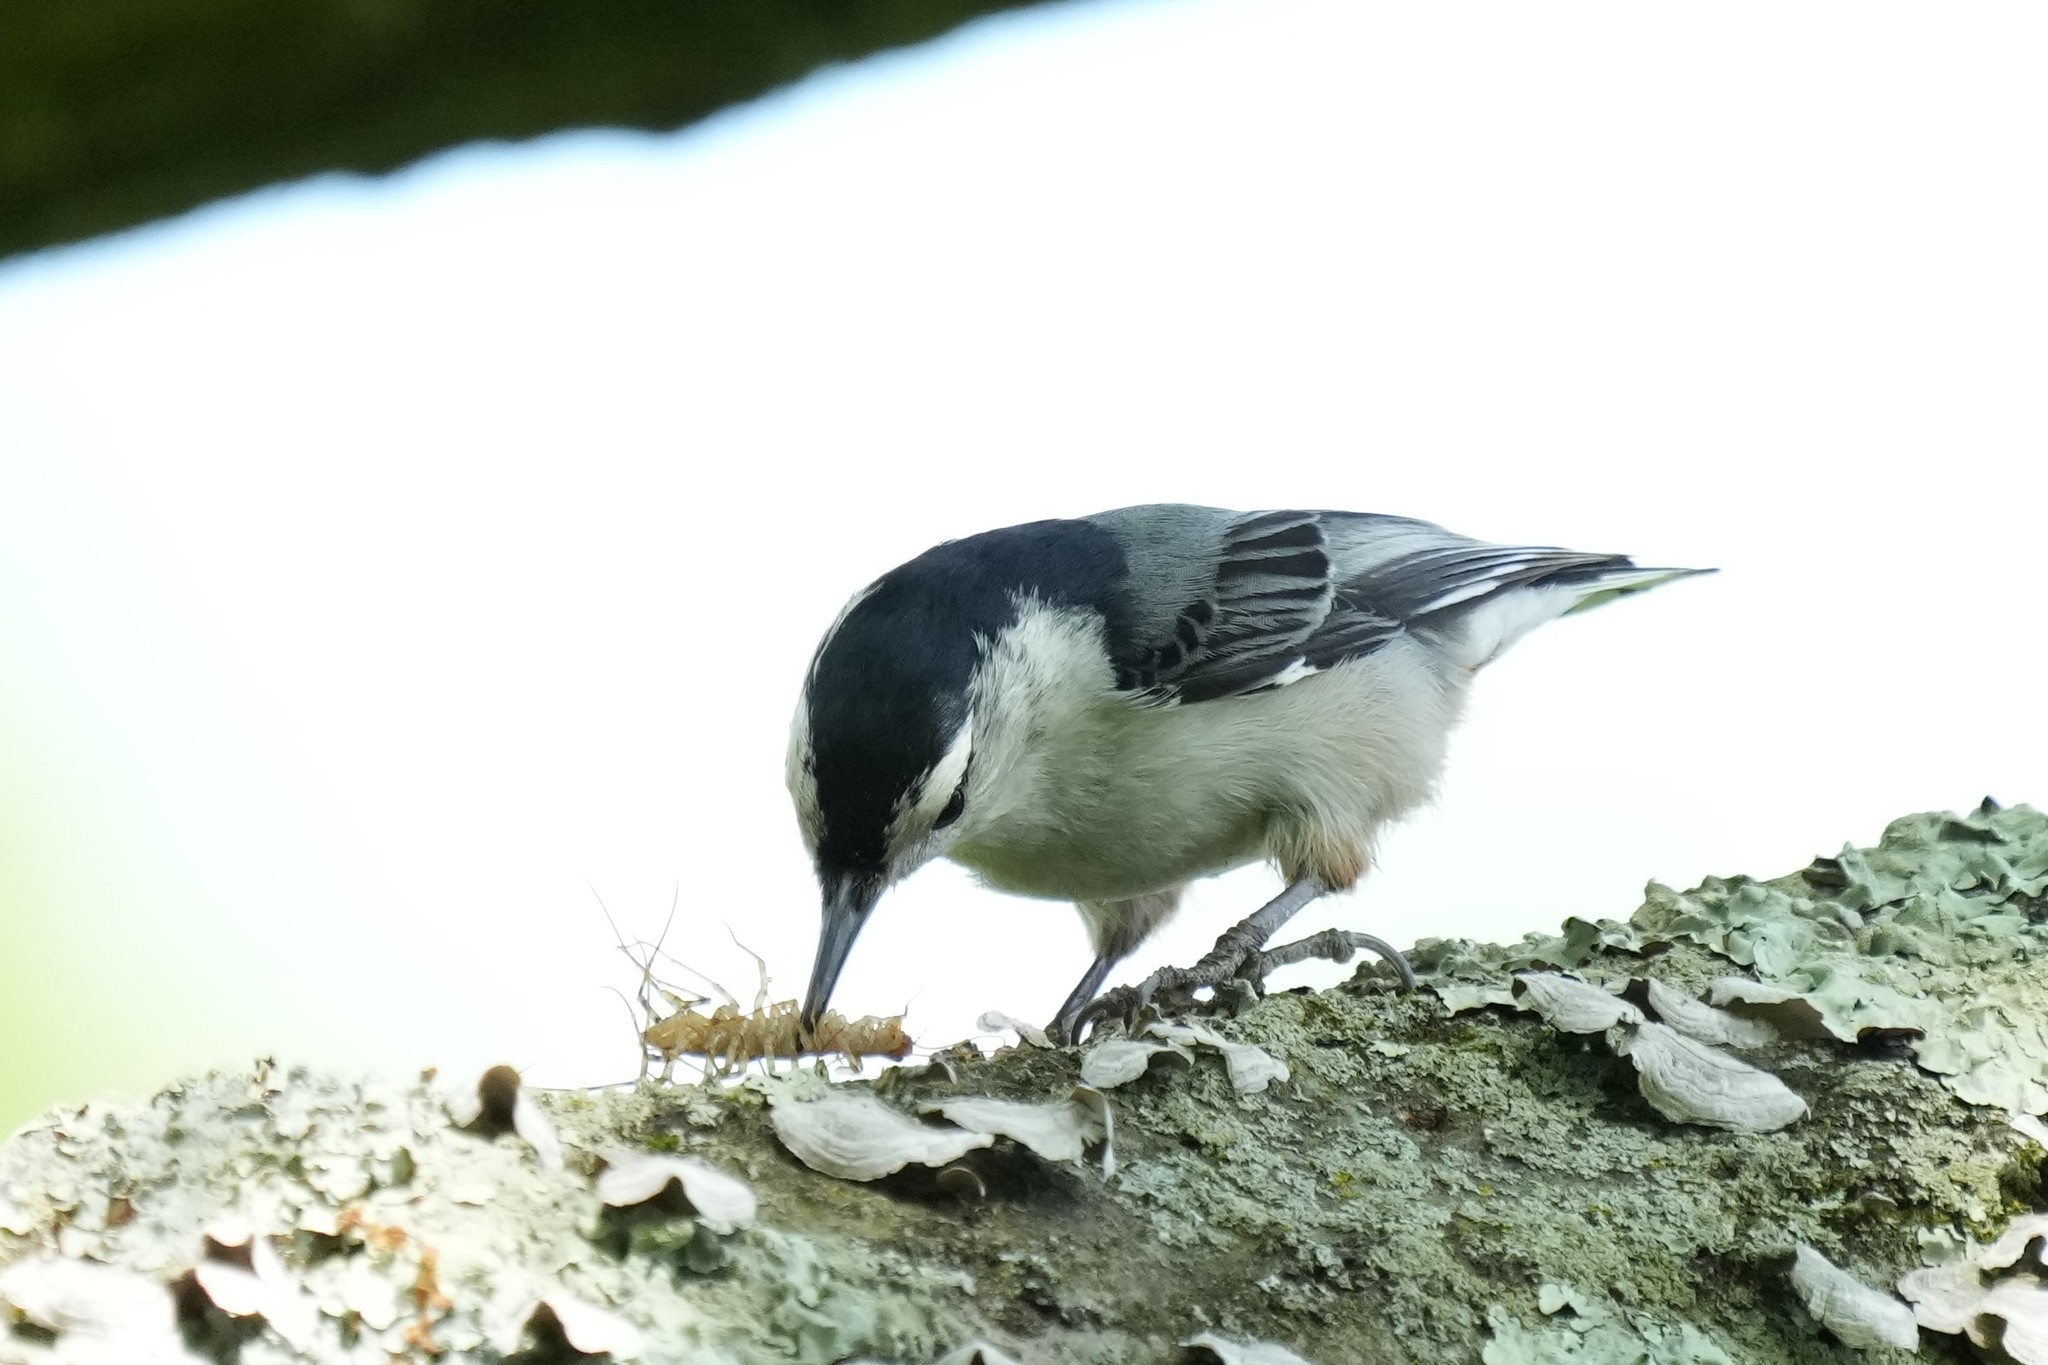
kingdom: Animalia
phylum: Chordata
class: Aves
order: Passeriformes
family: Sittidae
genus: Sitta
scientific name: Sitta carolinensis
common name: White-breasted nuthatch
